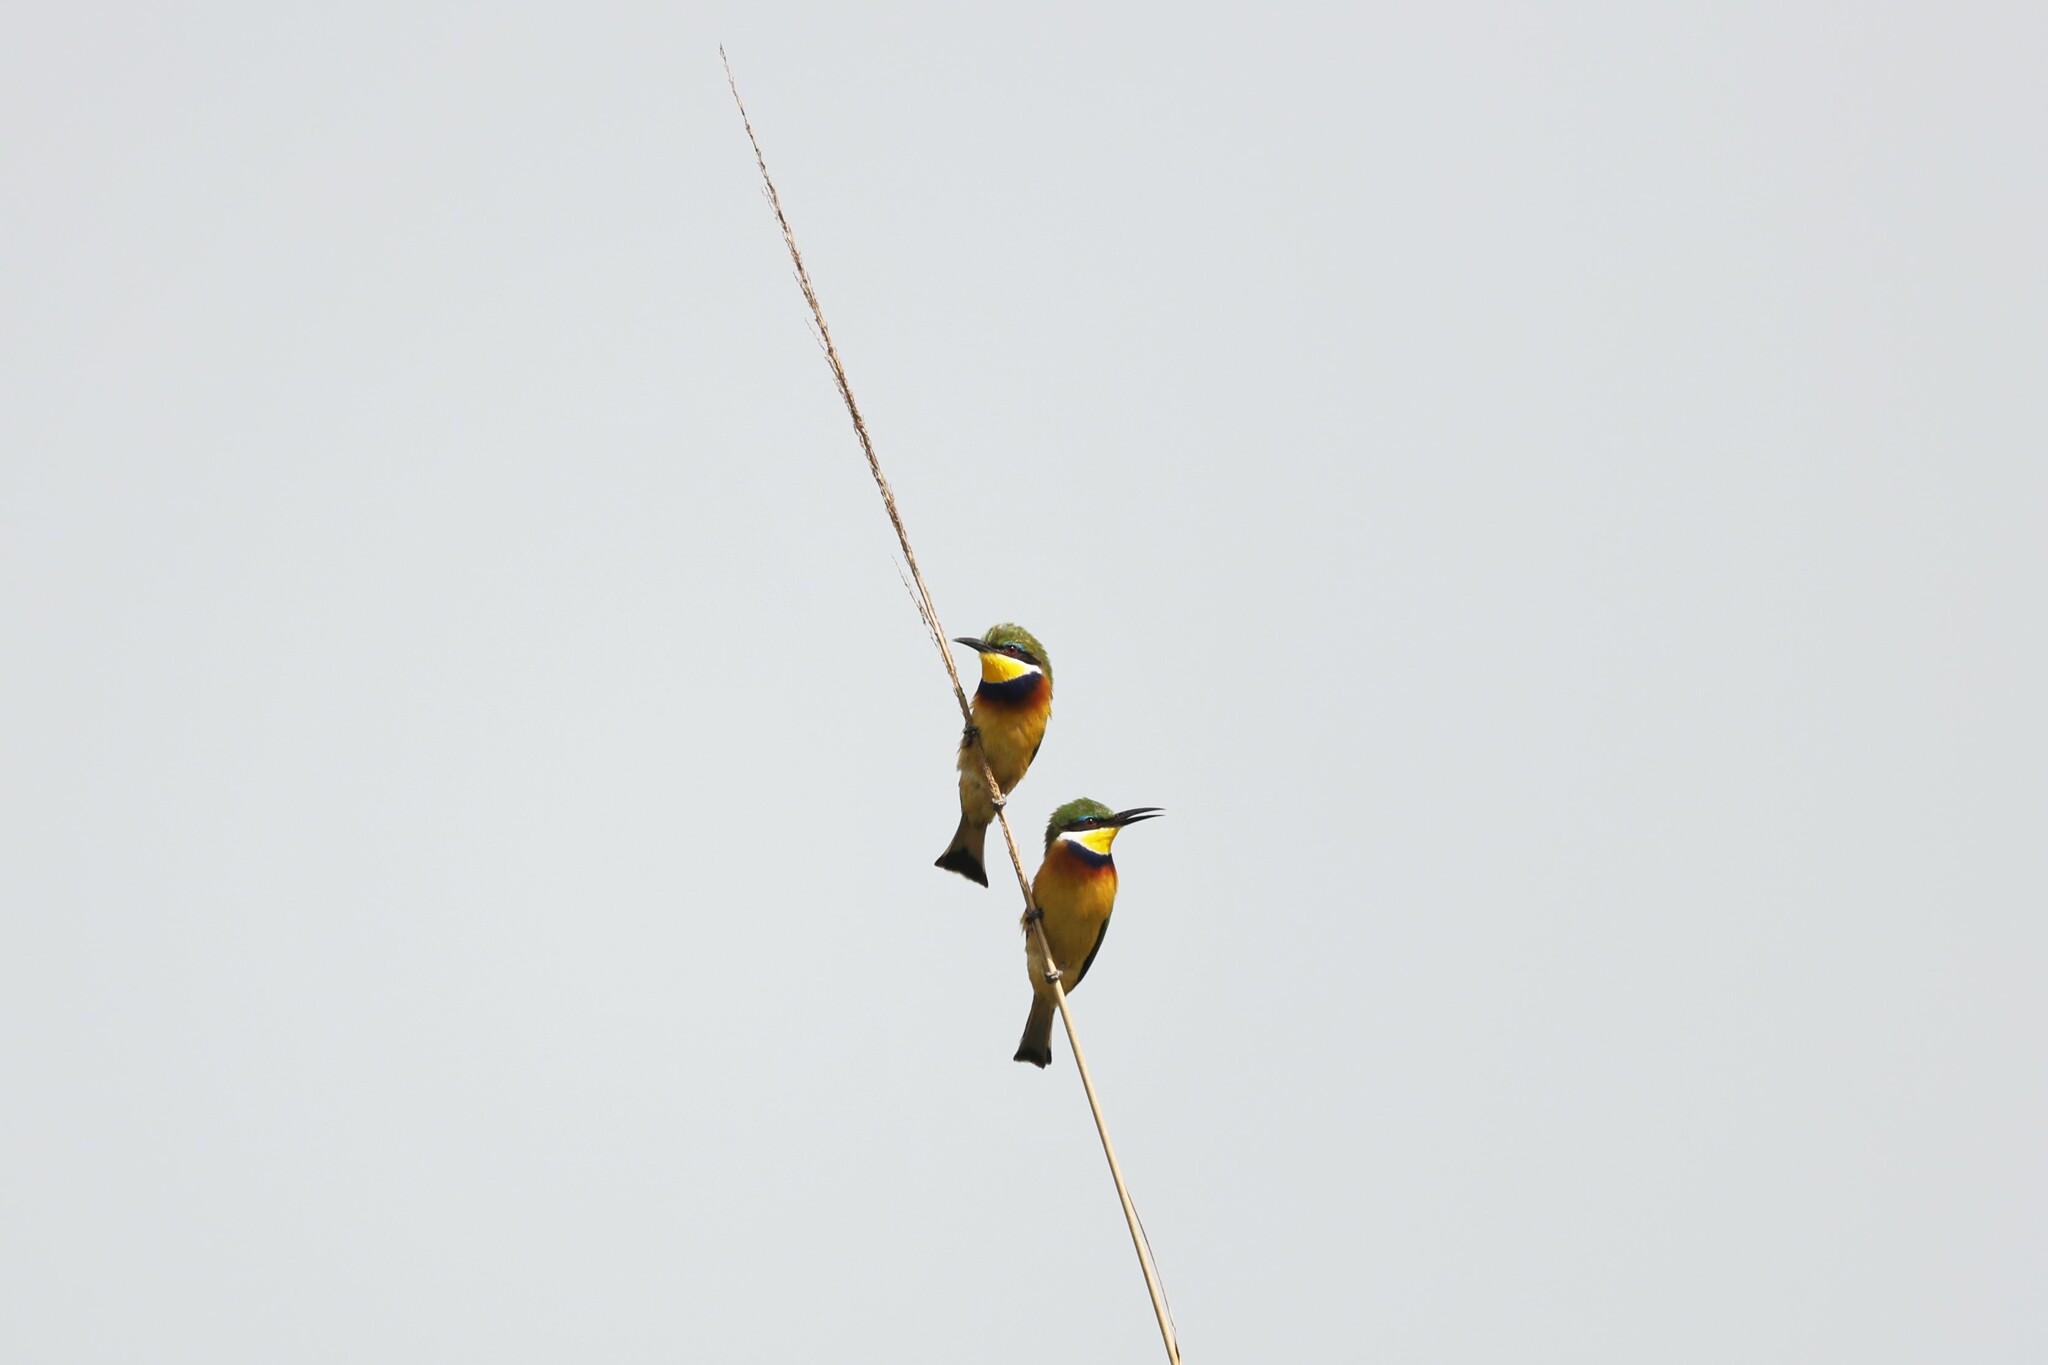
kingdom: Animalia
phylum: Chordata
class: Aves
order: Coraciiformes
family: Meropidae
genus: Merops
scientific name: Merops variegatus
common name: Blue-breasted bee-eater
